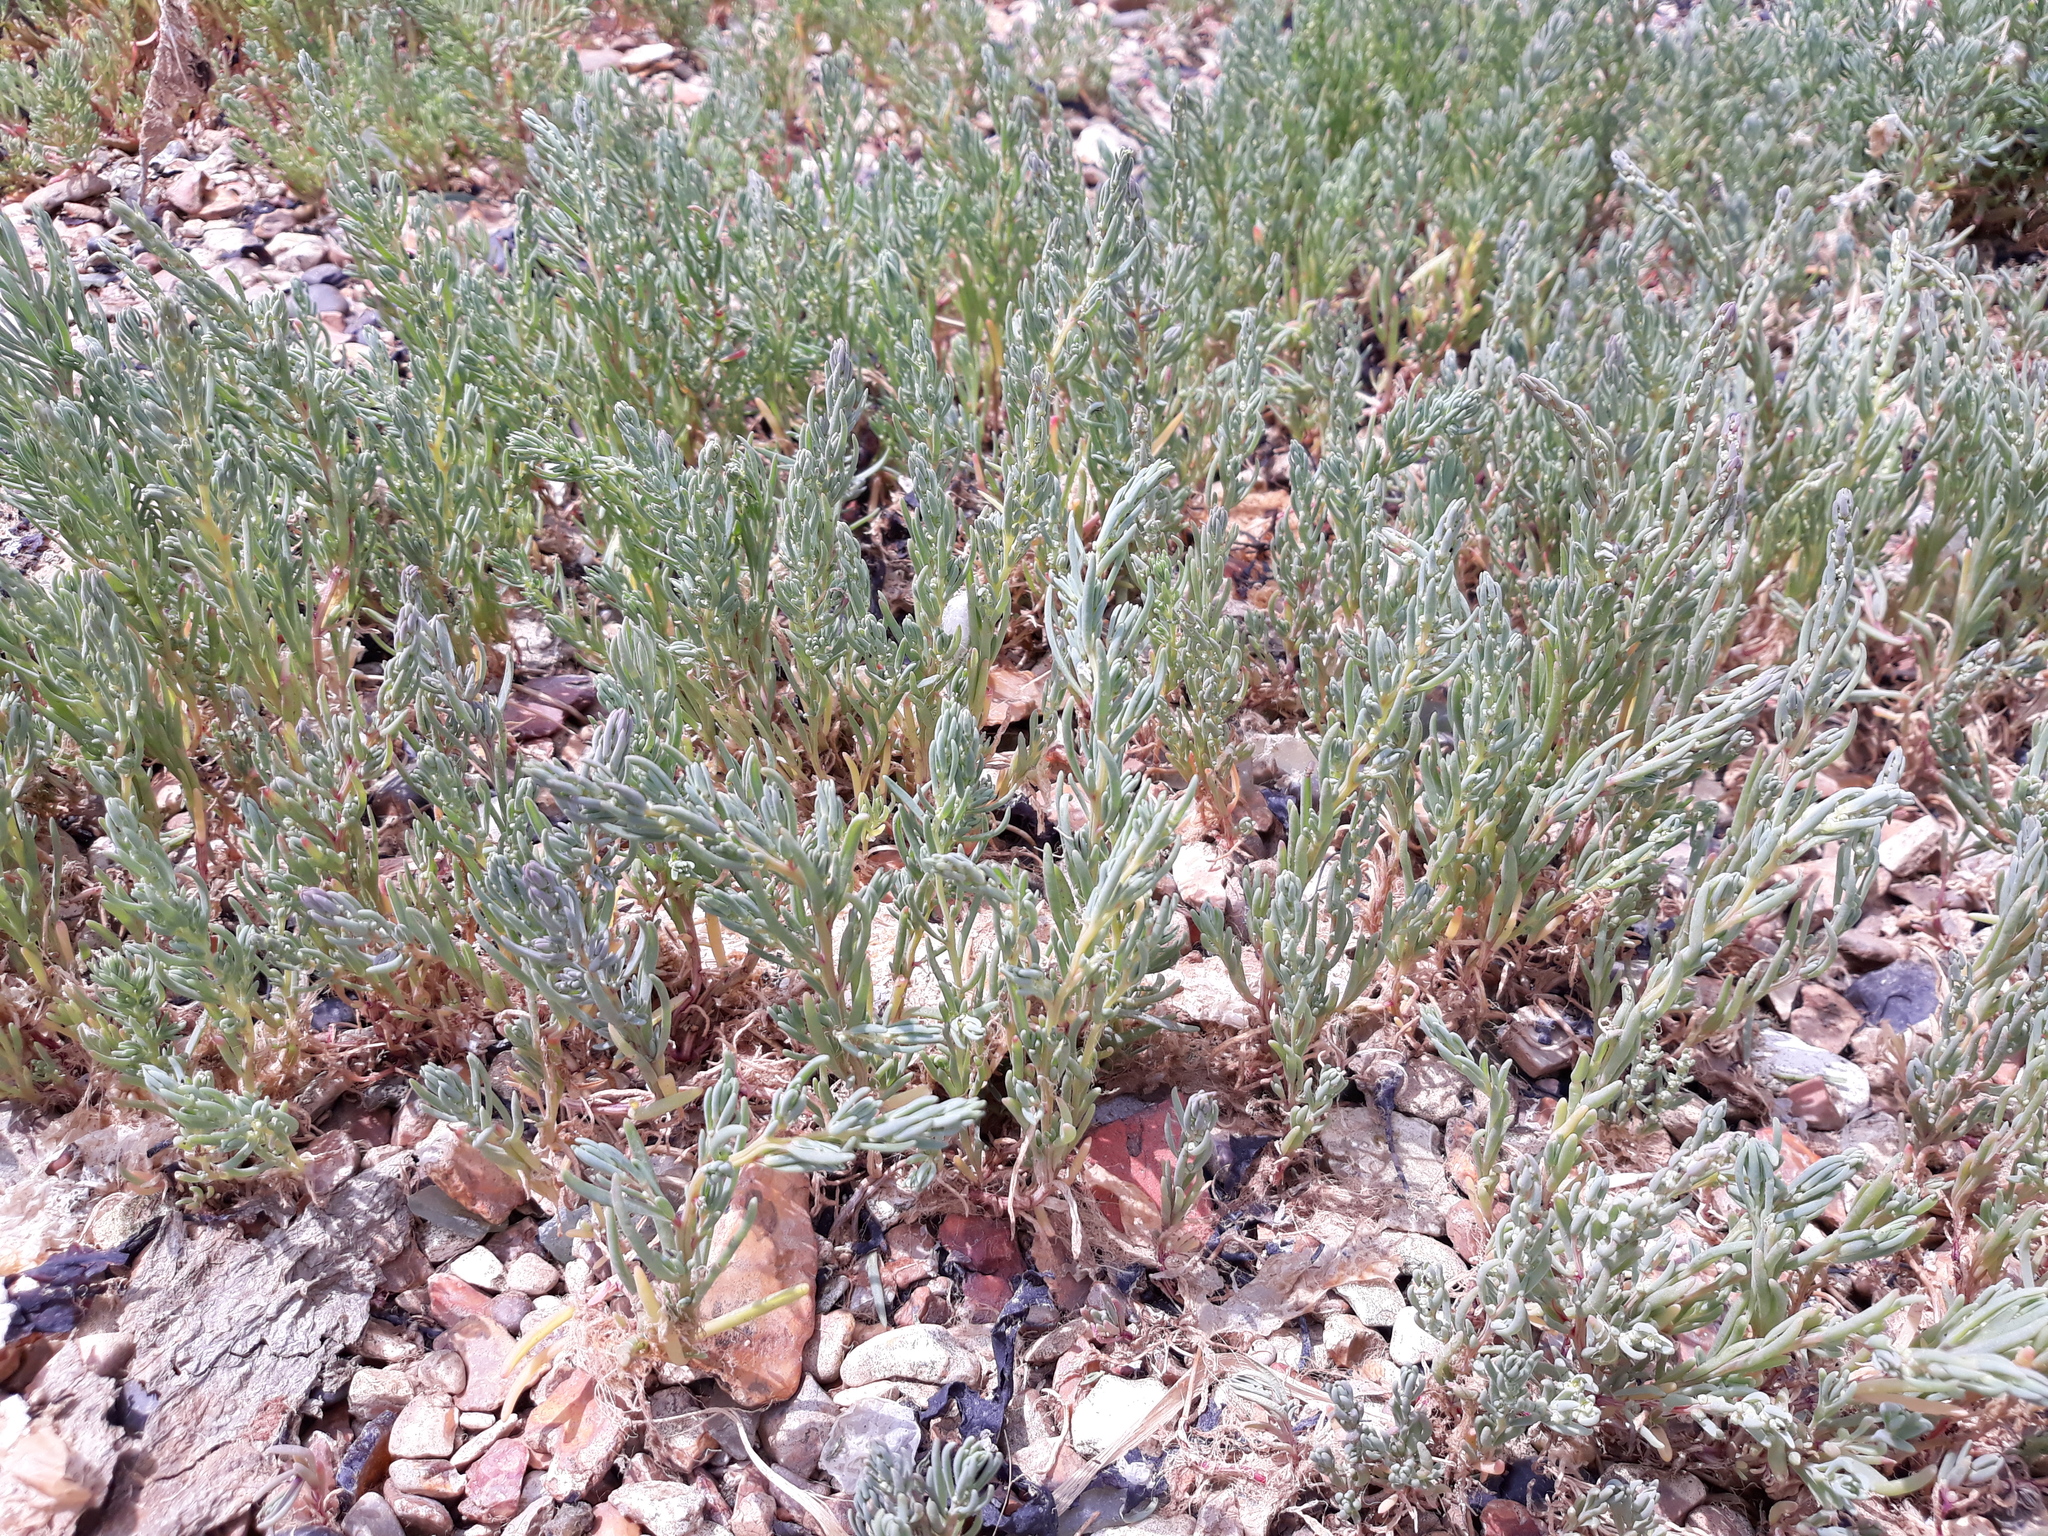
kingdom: Plantae
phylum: Tracheophyta
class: Magnoliopsida
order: Caryophyllales
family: Amaranthaceae
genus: Suaeda
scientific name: Suaeda maritima
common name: Annual sea-blite
